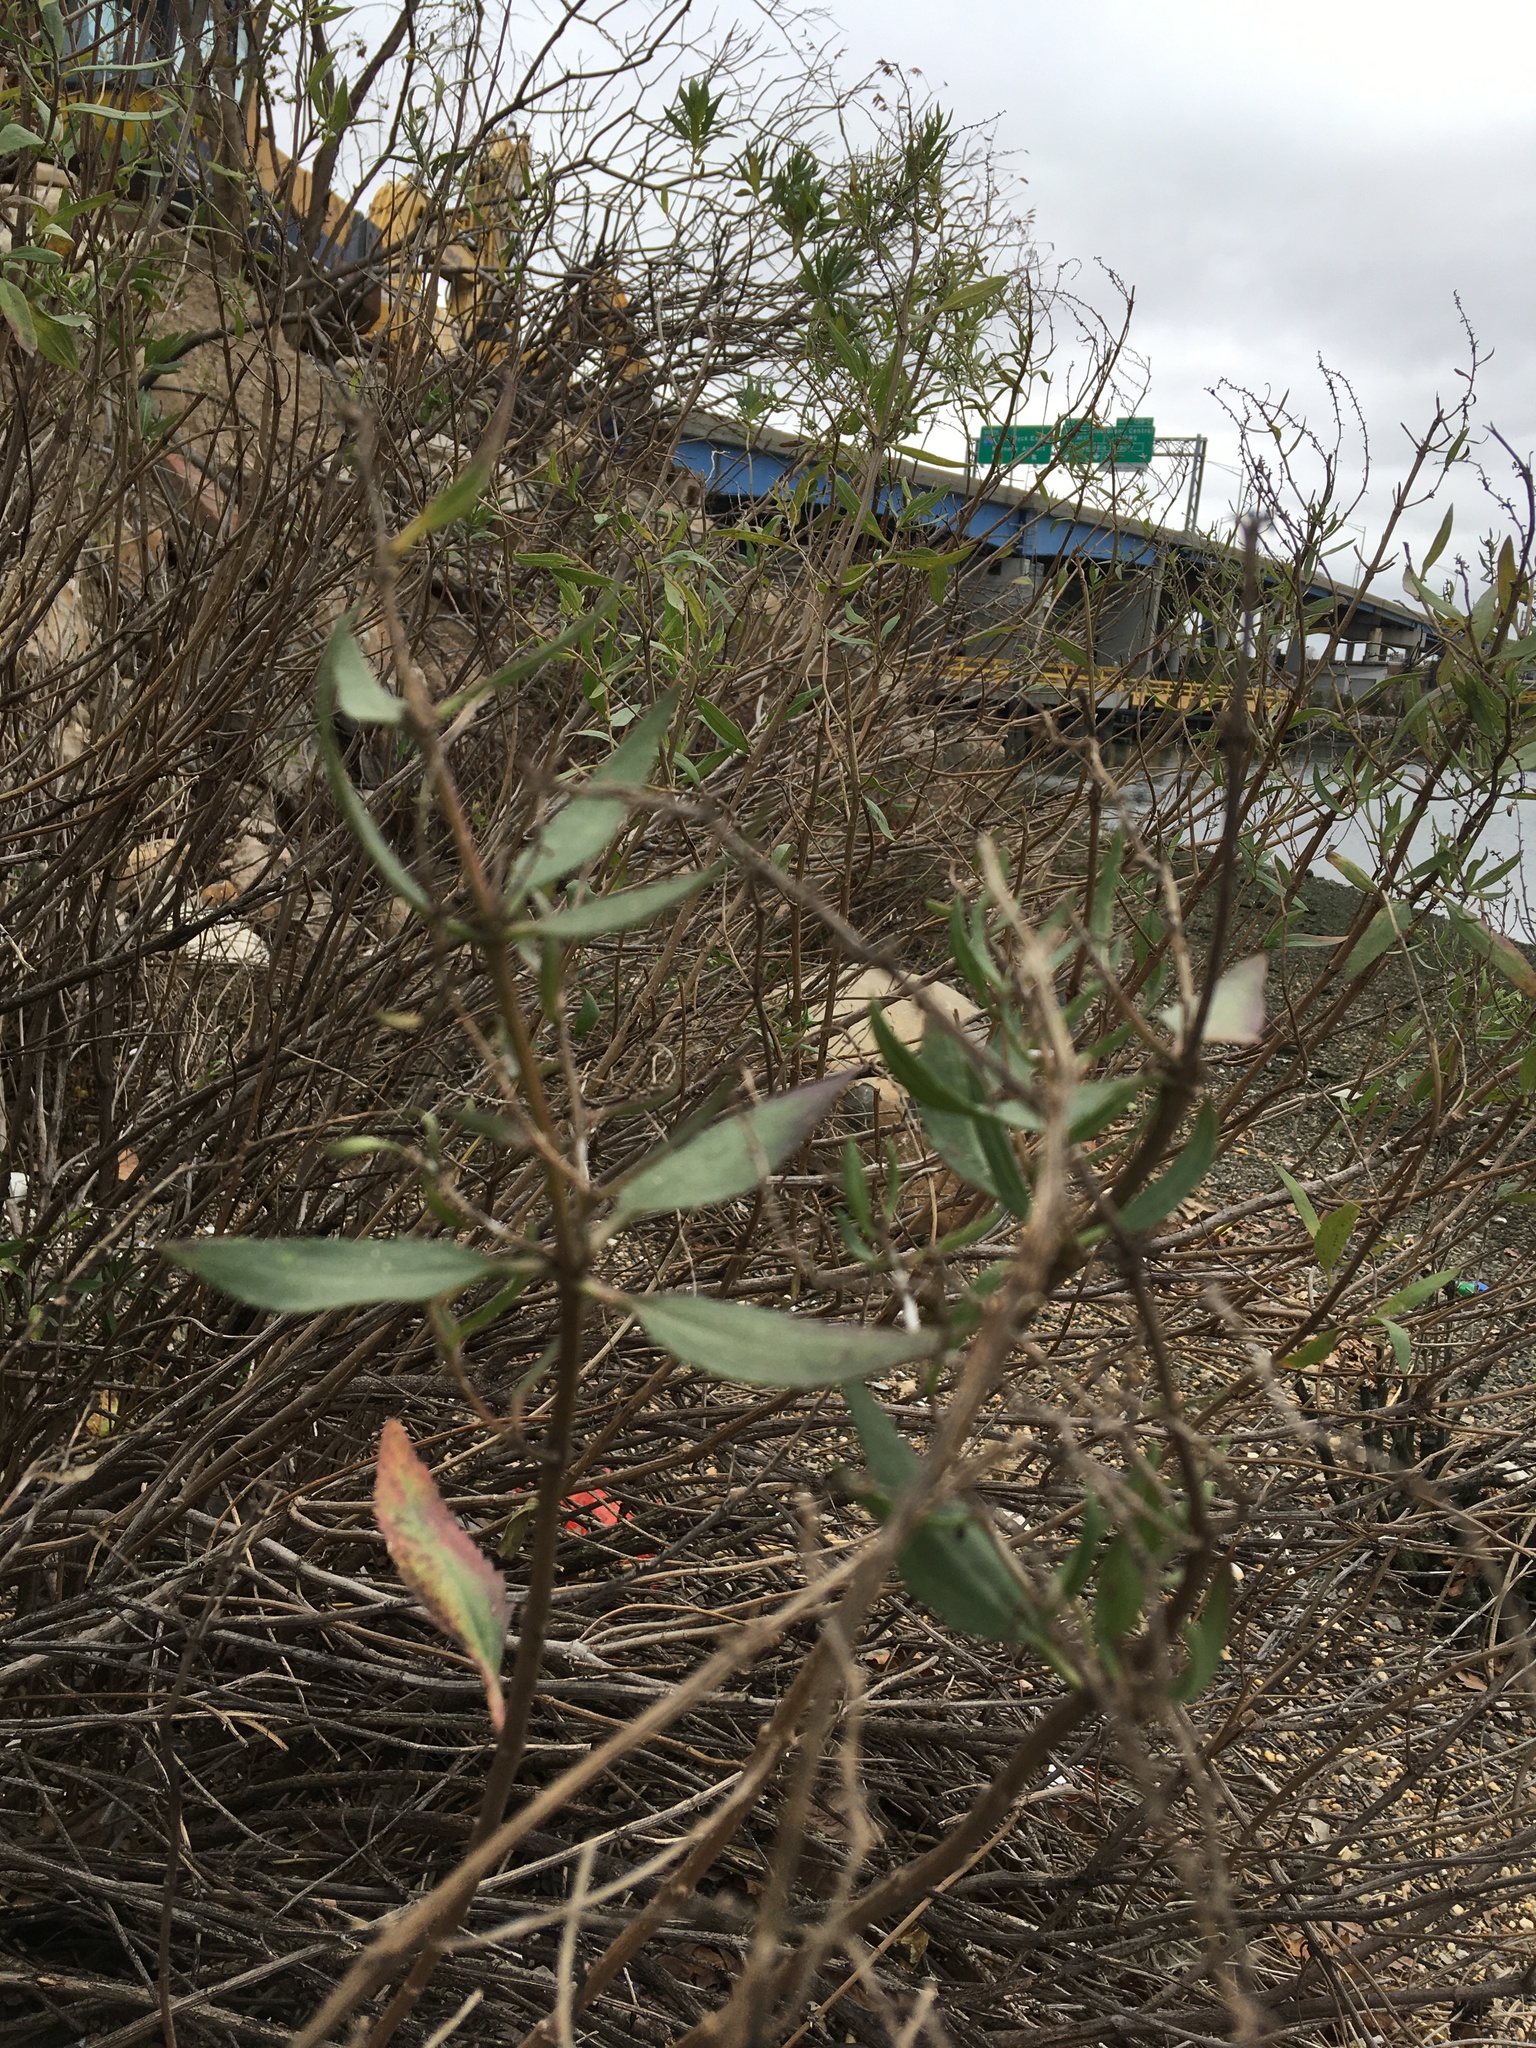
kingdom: Plantae
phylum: Tracheophyta
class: Magnoliopsida
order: Asterales
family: Asteraceae
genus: Iva
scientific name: Iva frutescens
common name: Big-leaved marsh-elder
